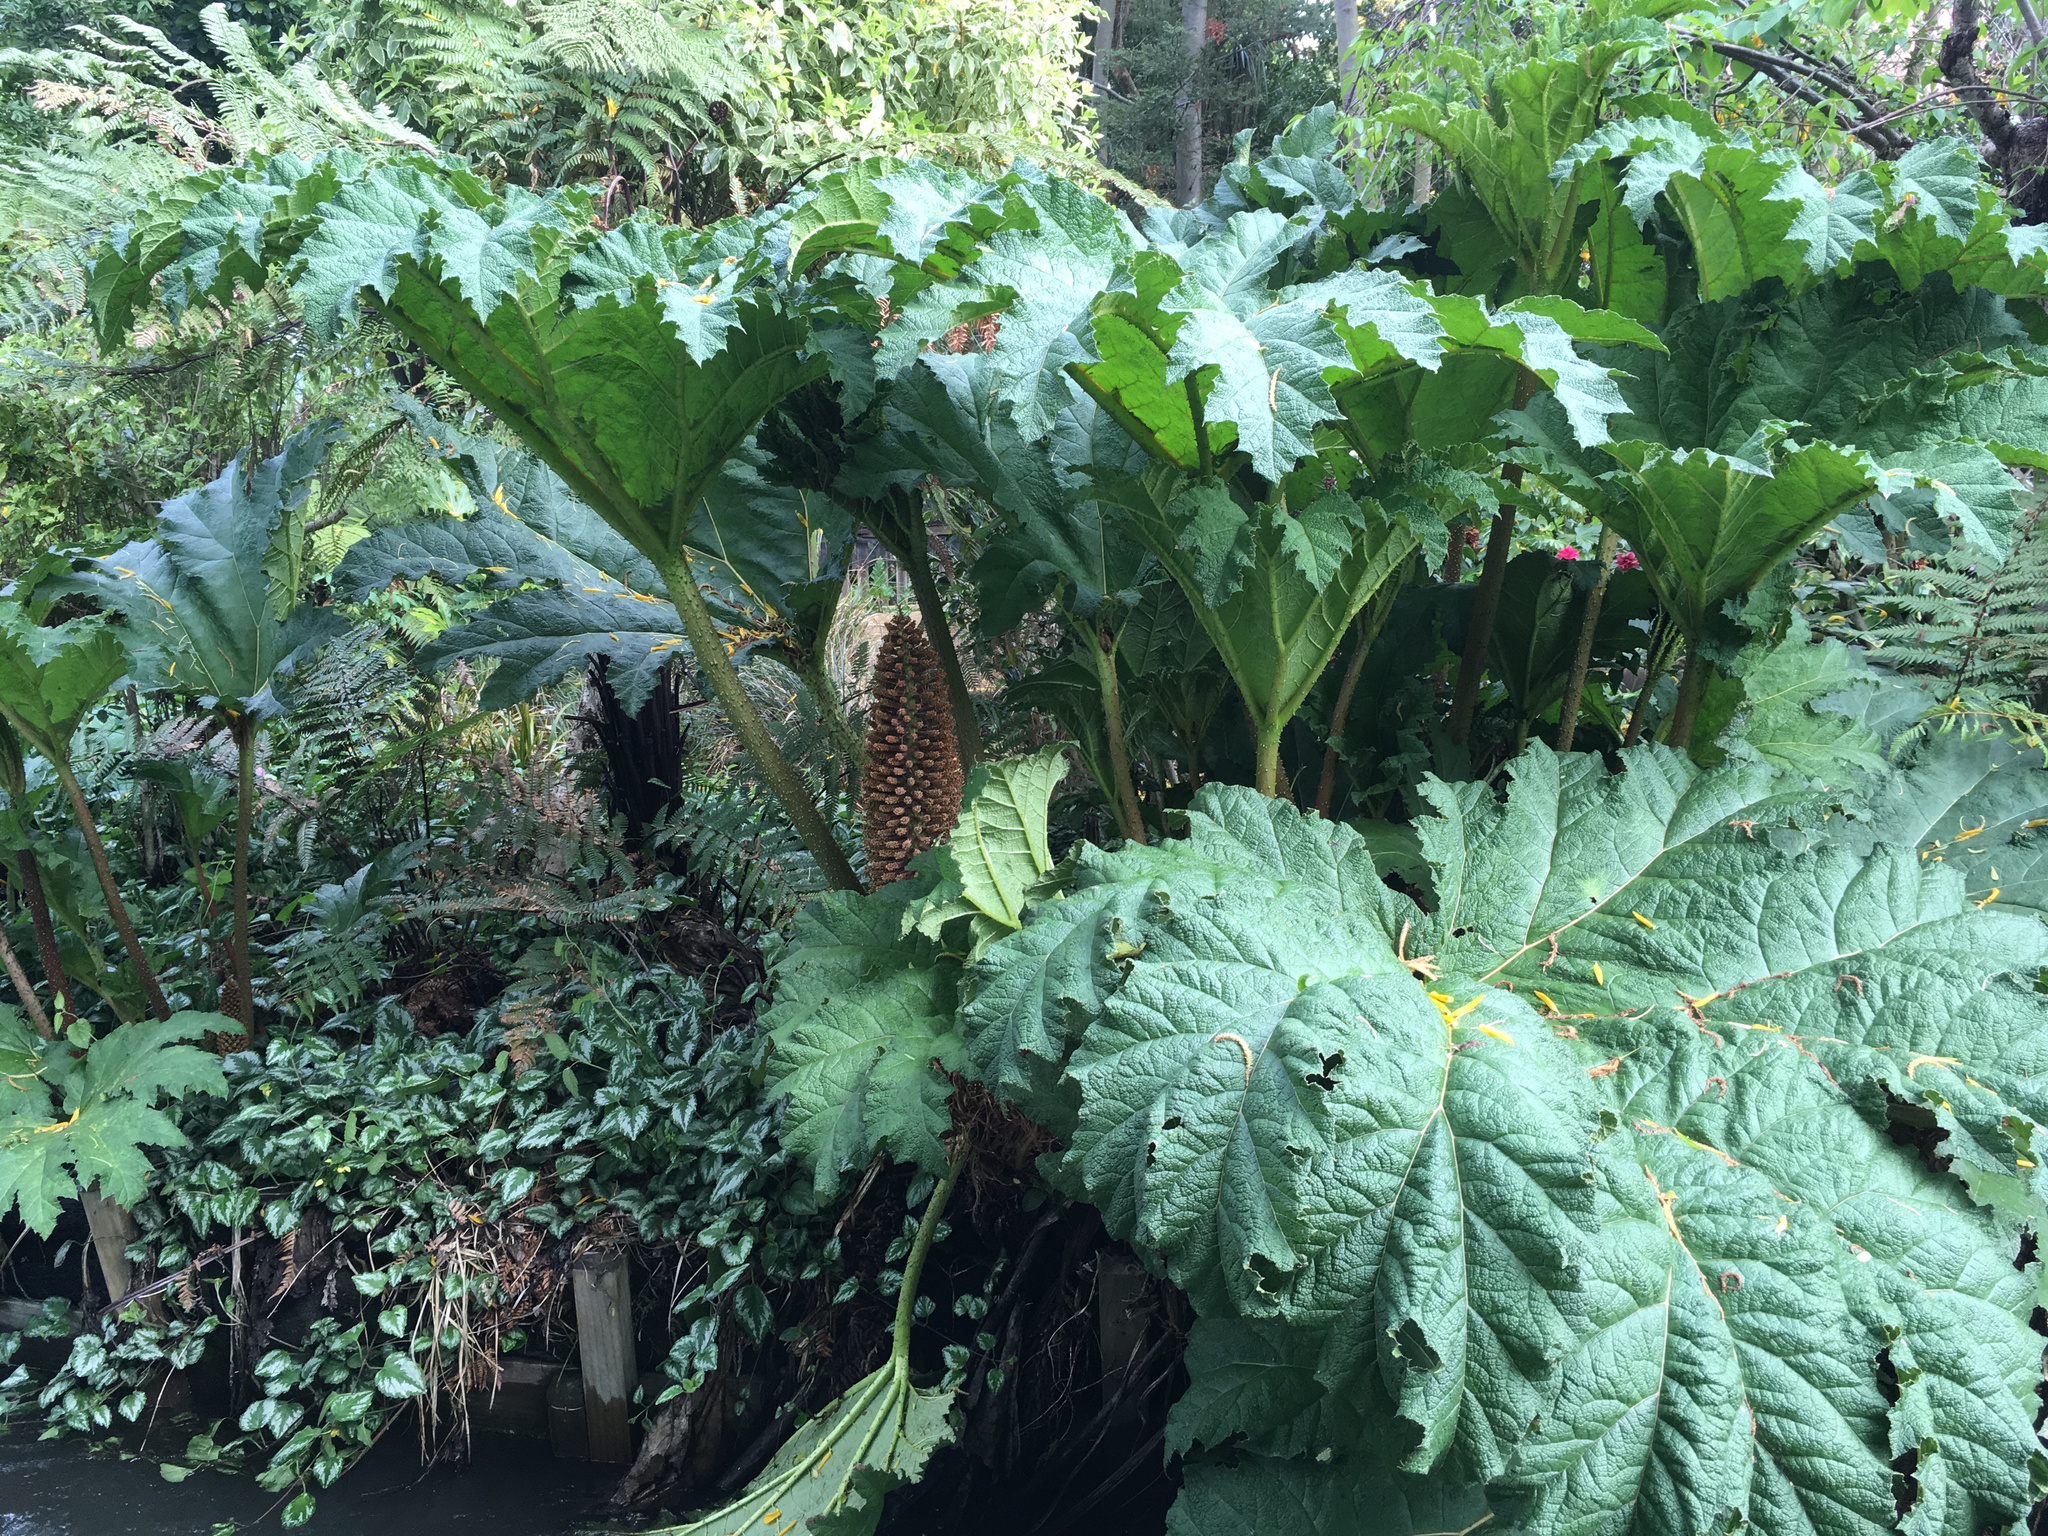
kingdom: Plantae
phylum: Tracheophyta
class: Magnoliopsida
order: Gunnerales
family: Gunneraceae
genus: Gunnera
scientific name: Gunnera tinctoria
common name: Giant-rhubarb
